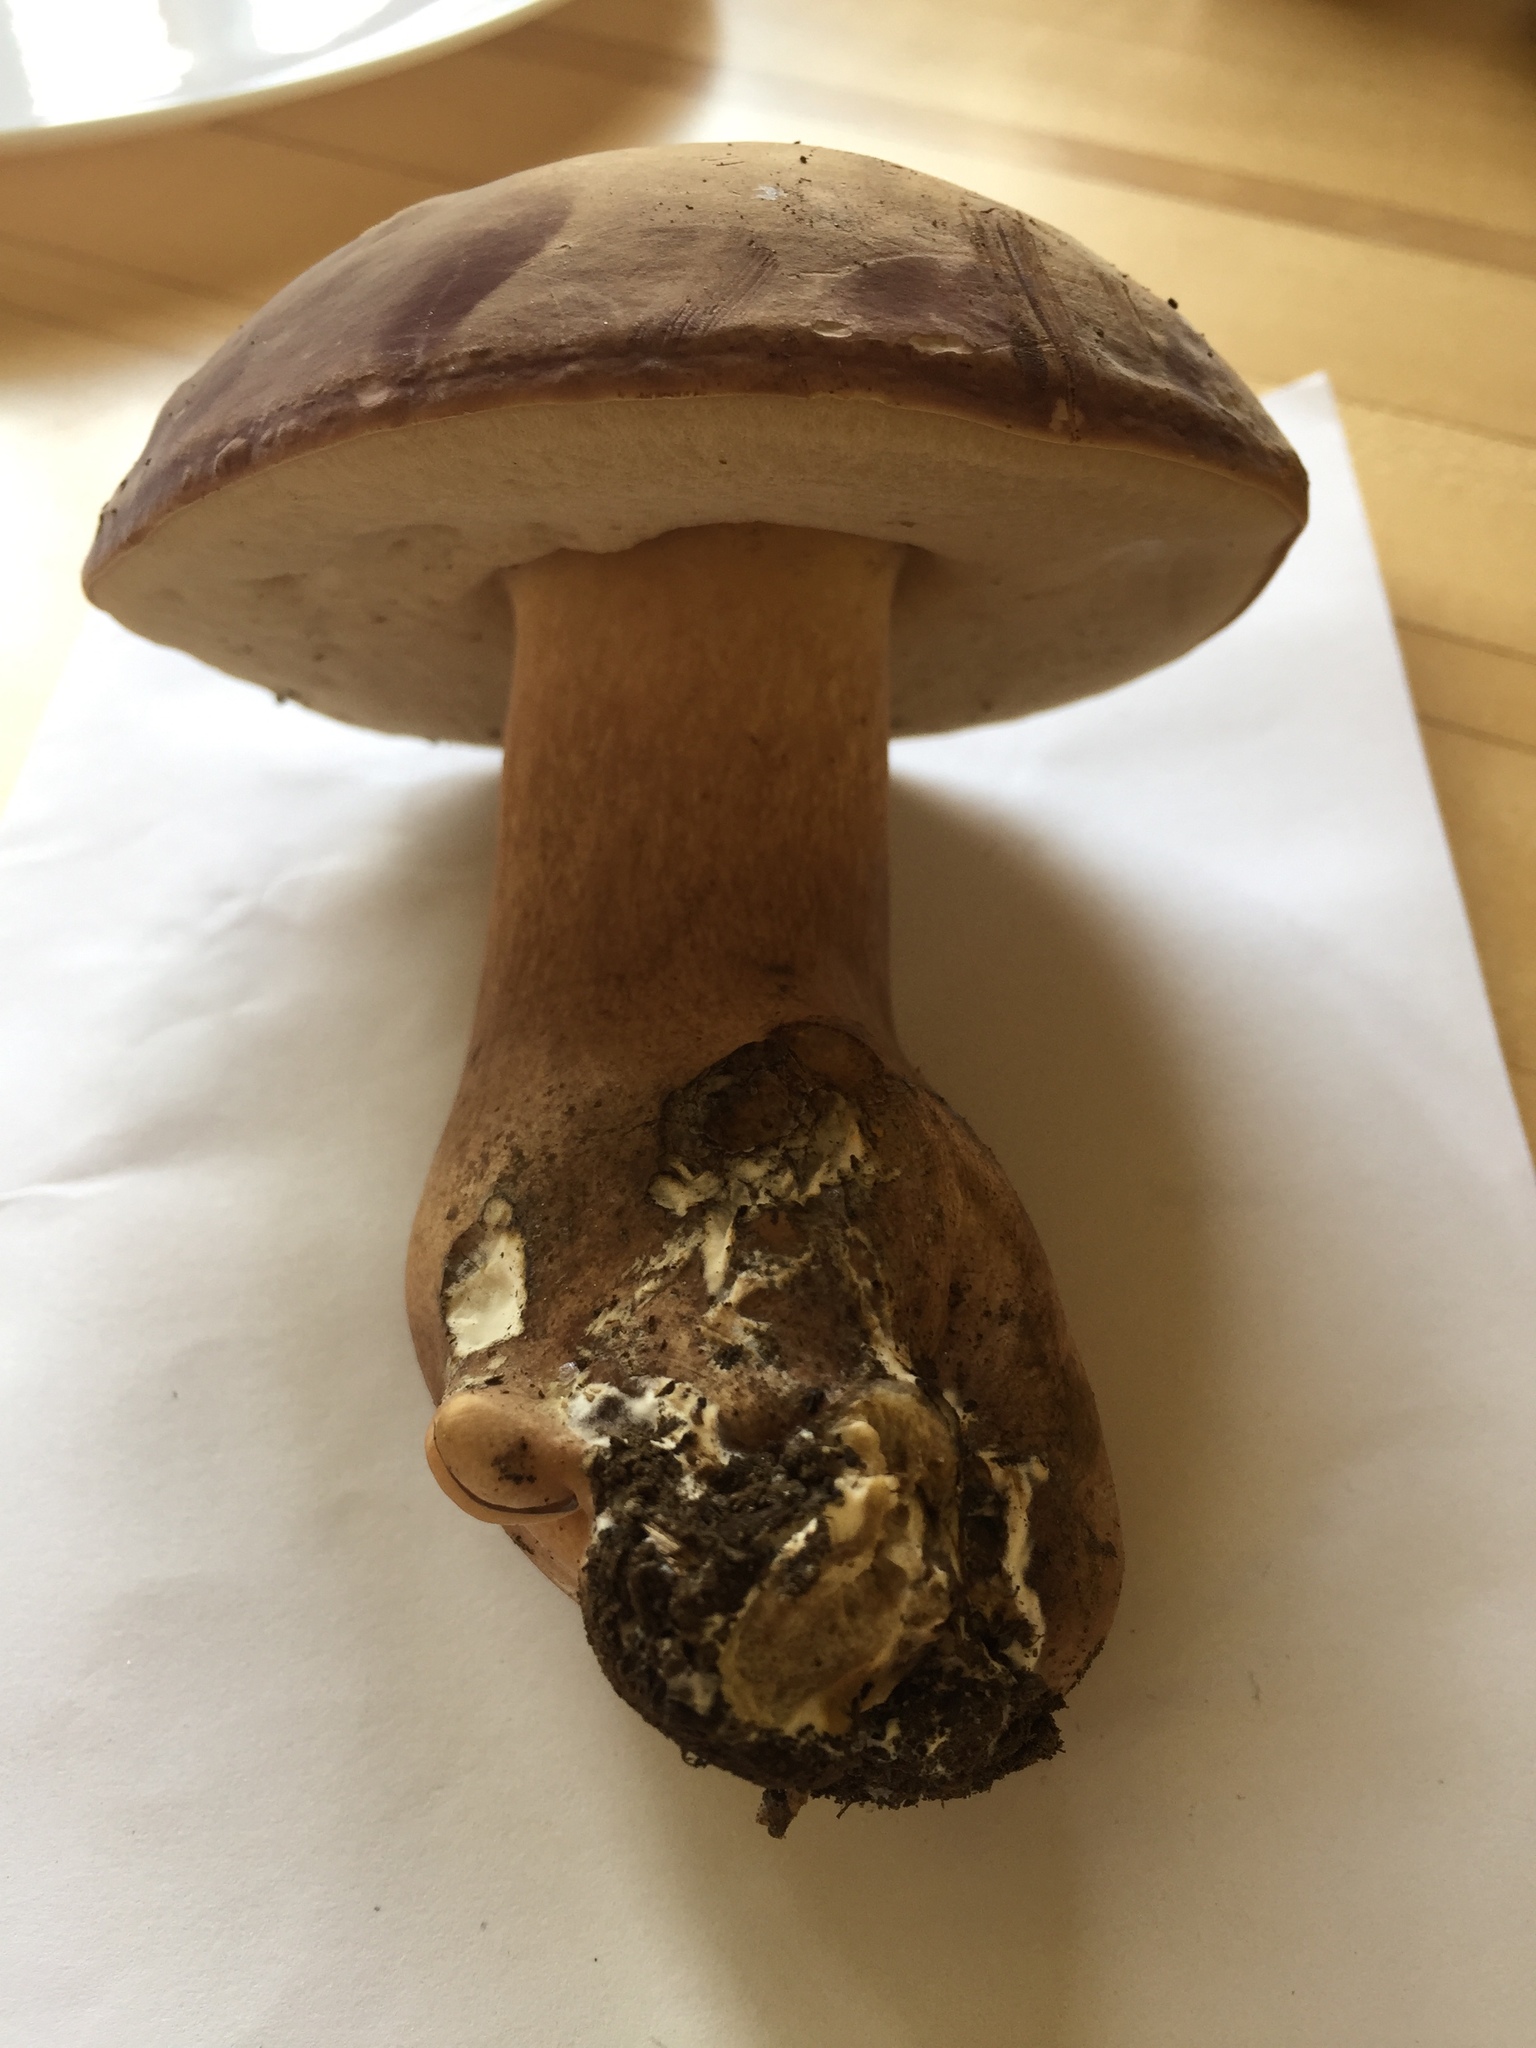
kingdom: Fungi
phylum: Basidiomycota
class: Agaricomycetes
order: Boletales
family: Boletaceae
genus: Tylopilus
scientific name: Tylopilus badiceps
